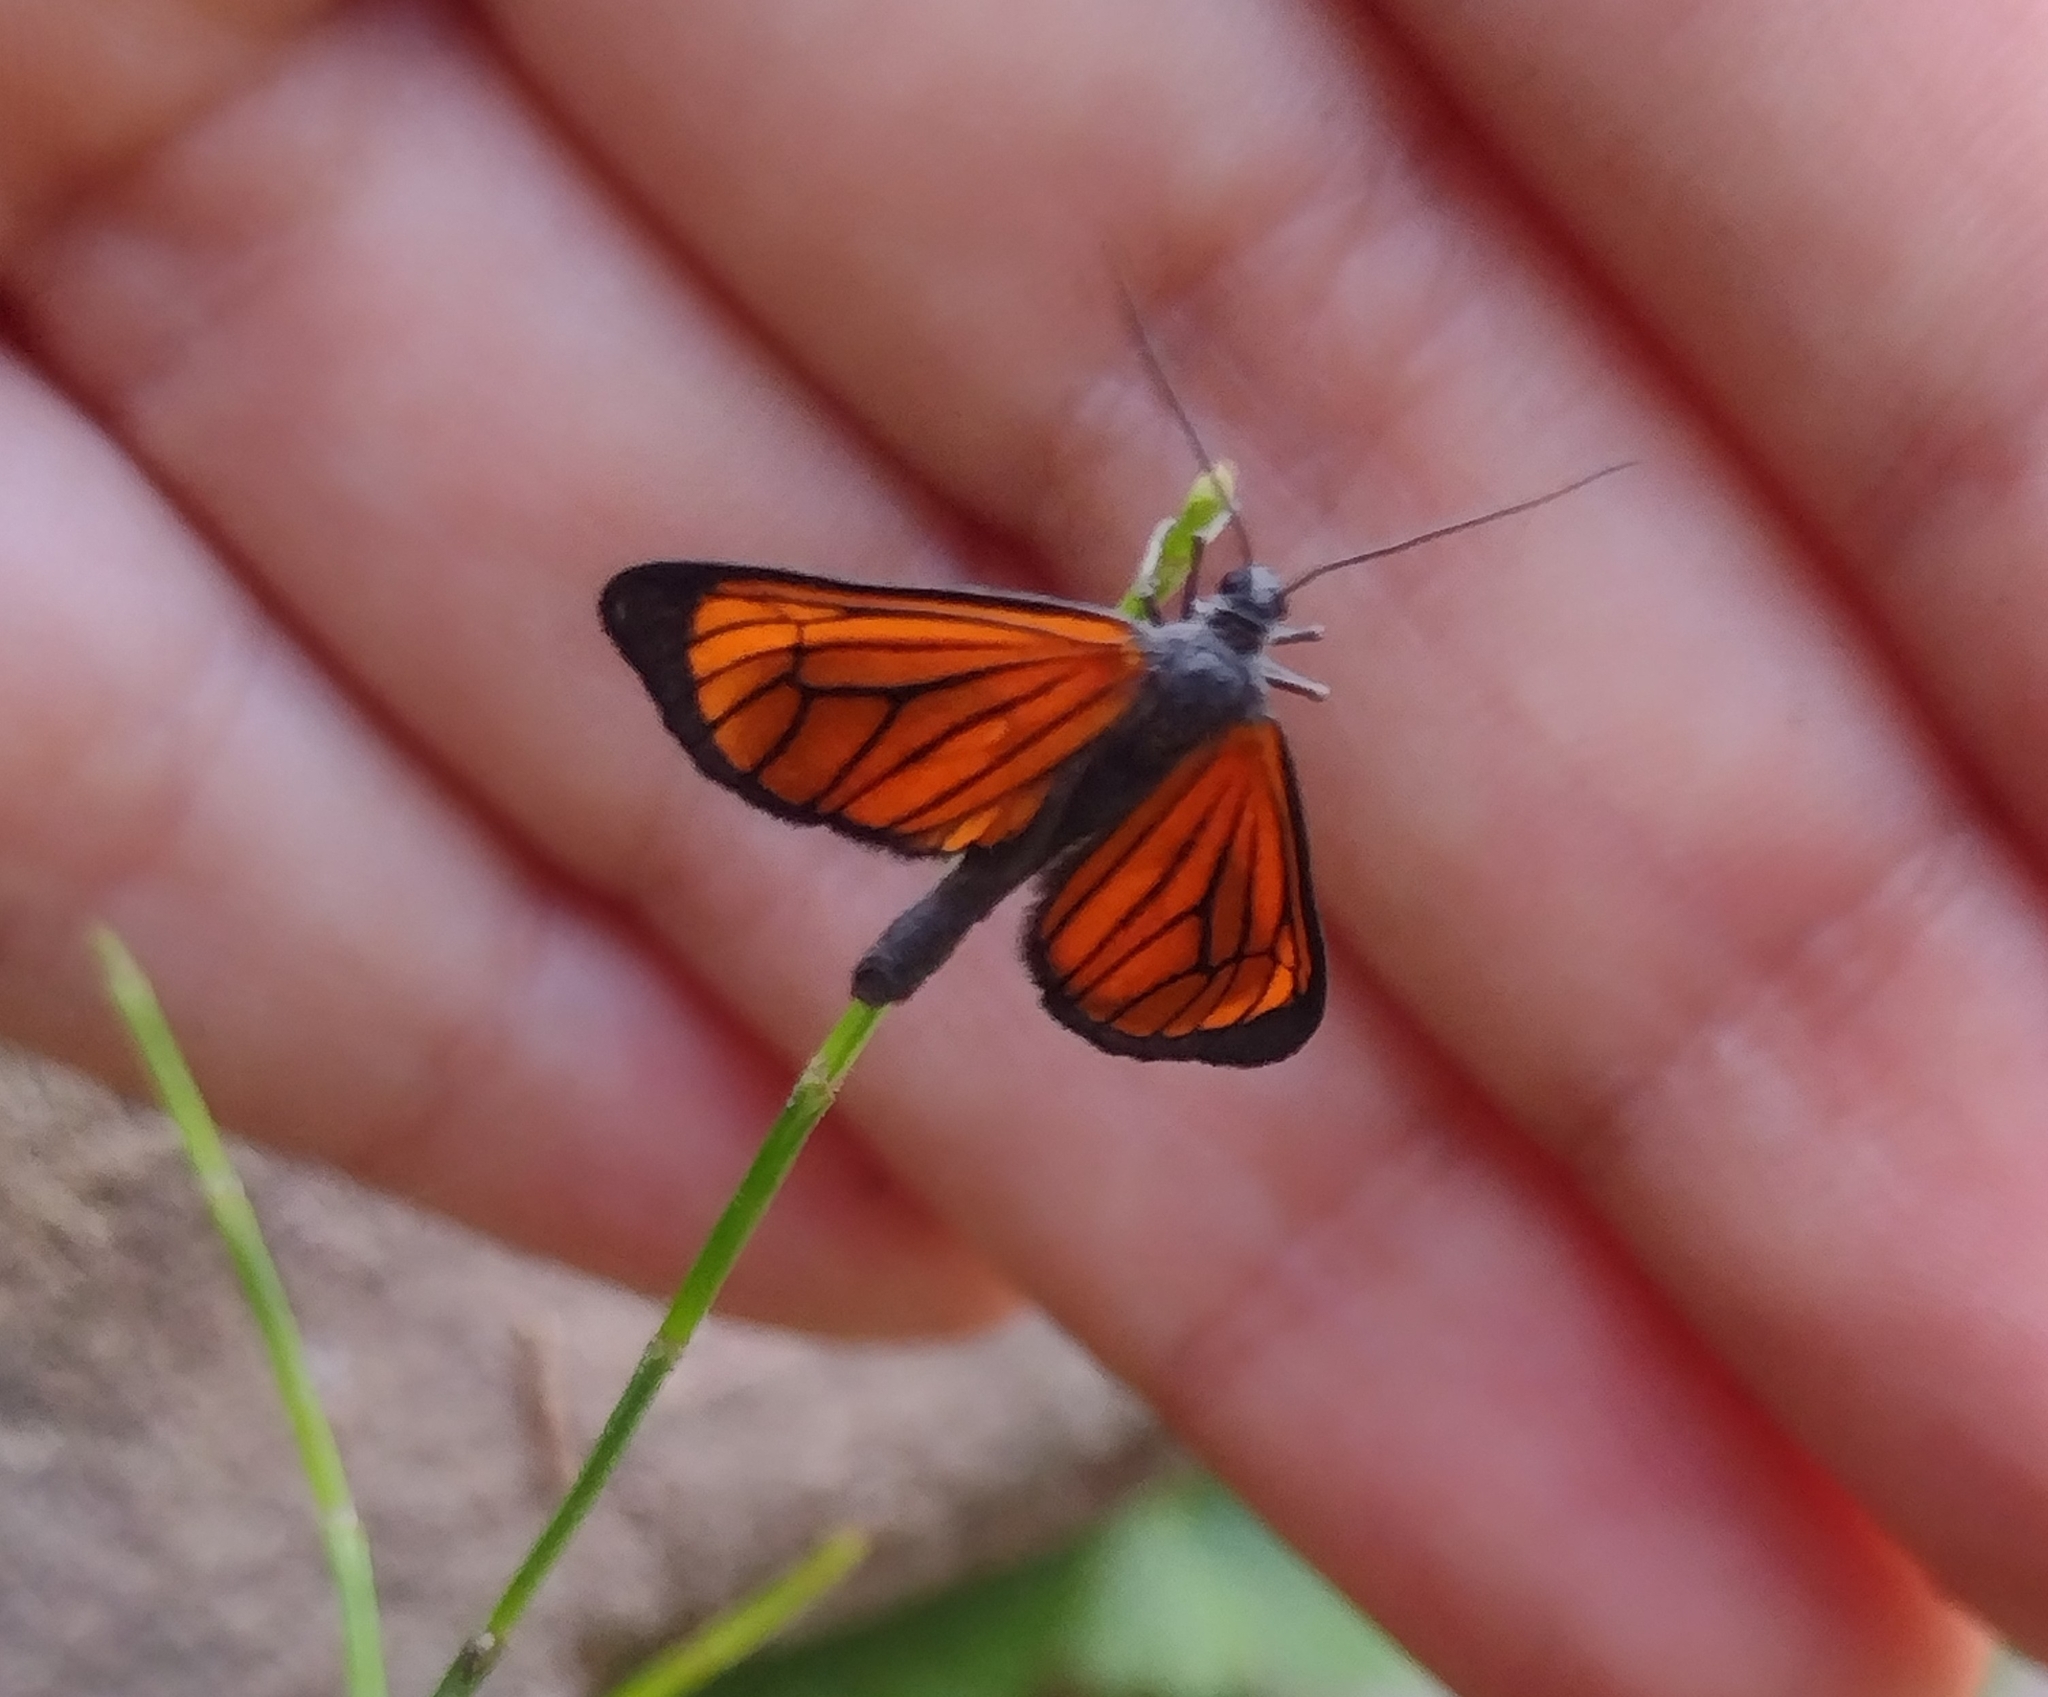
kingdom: Animalia
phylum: Arthropoda
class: Insecta
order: Lepidoptera
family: Geometridae
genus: Eudule
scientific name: Eudule limbata
